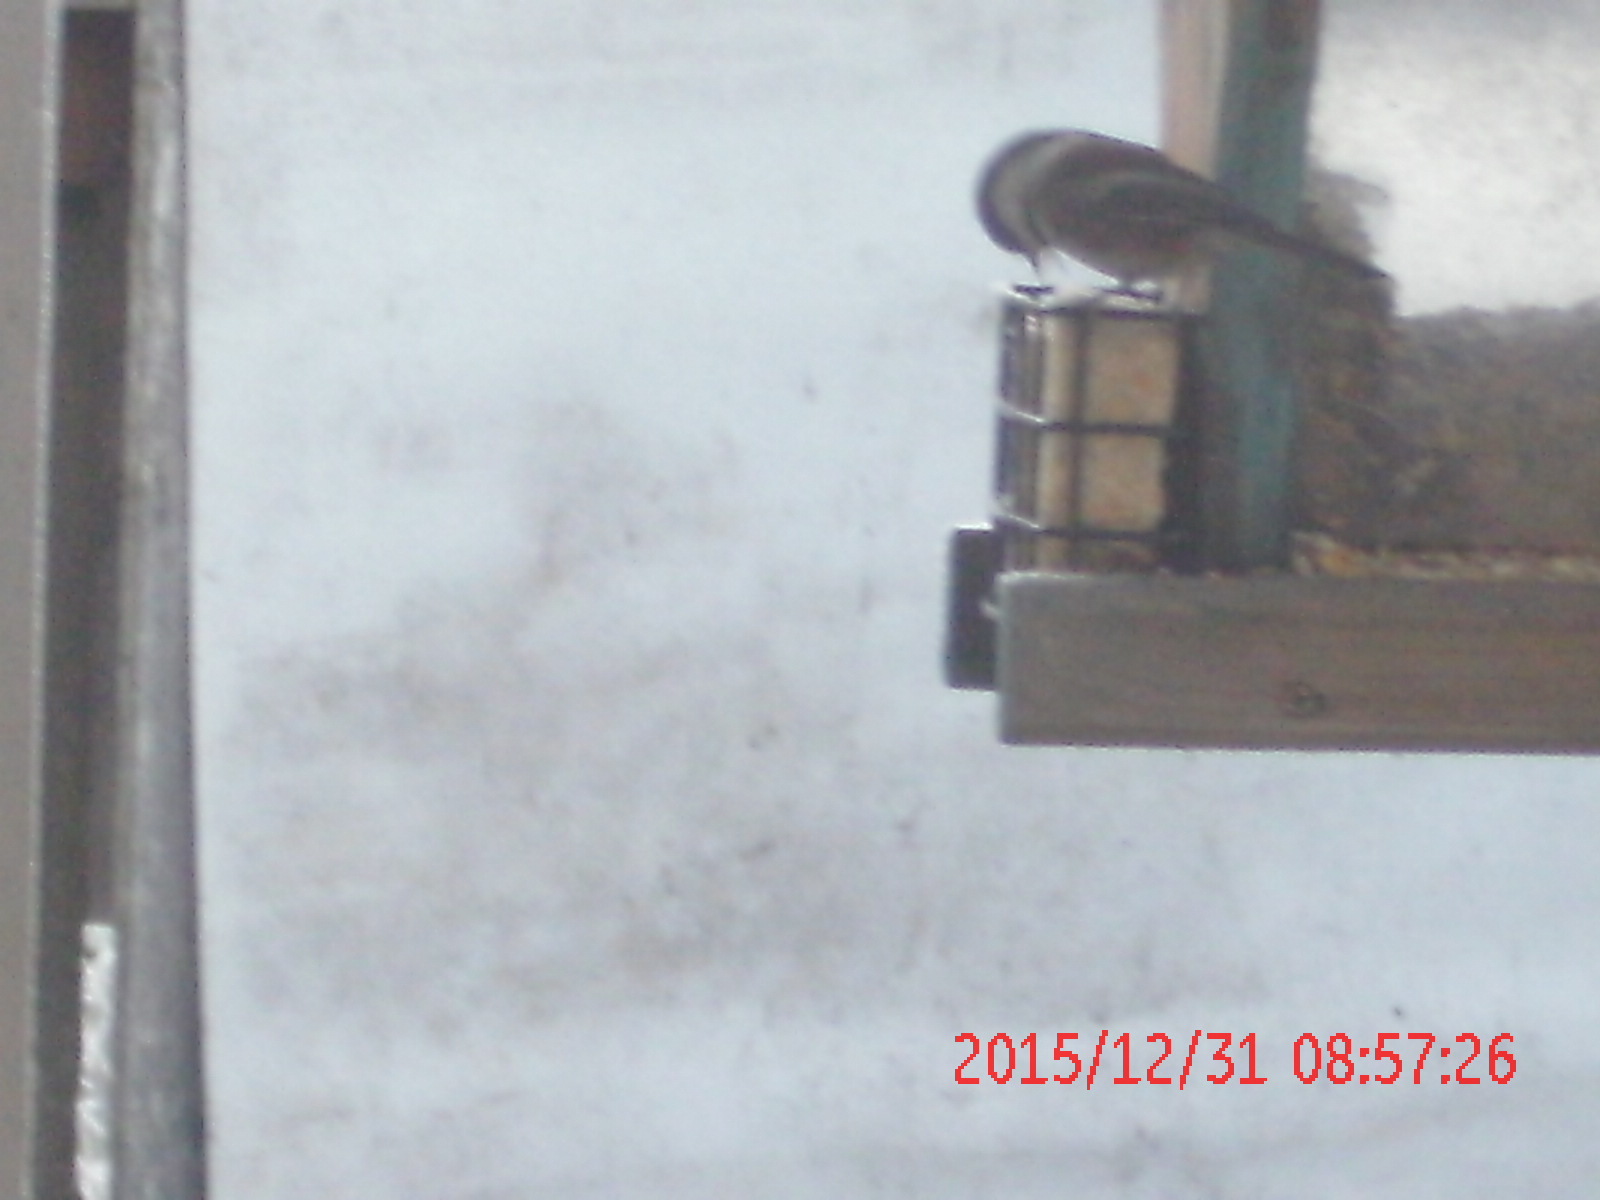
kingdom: Animalia
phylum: Chordata
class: Aves
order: Passeriformes
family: Paridae
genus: Poecile
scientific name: Poecile rufescens
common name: Chestnut-backed chickadee
